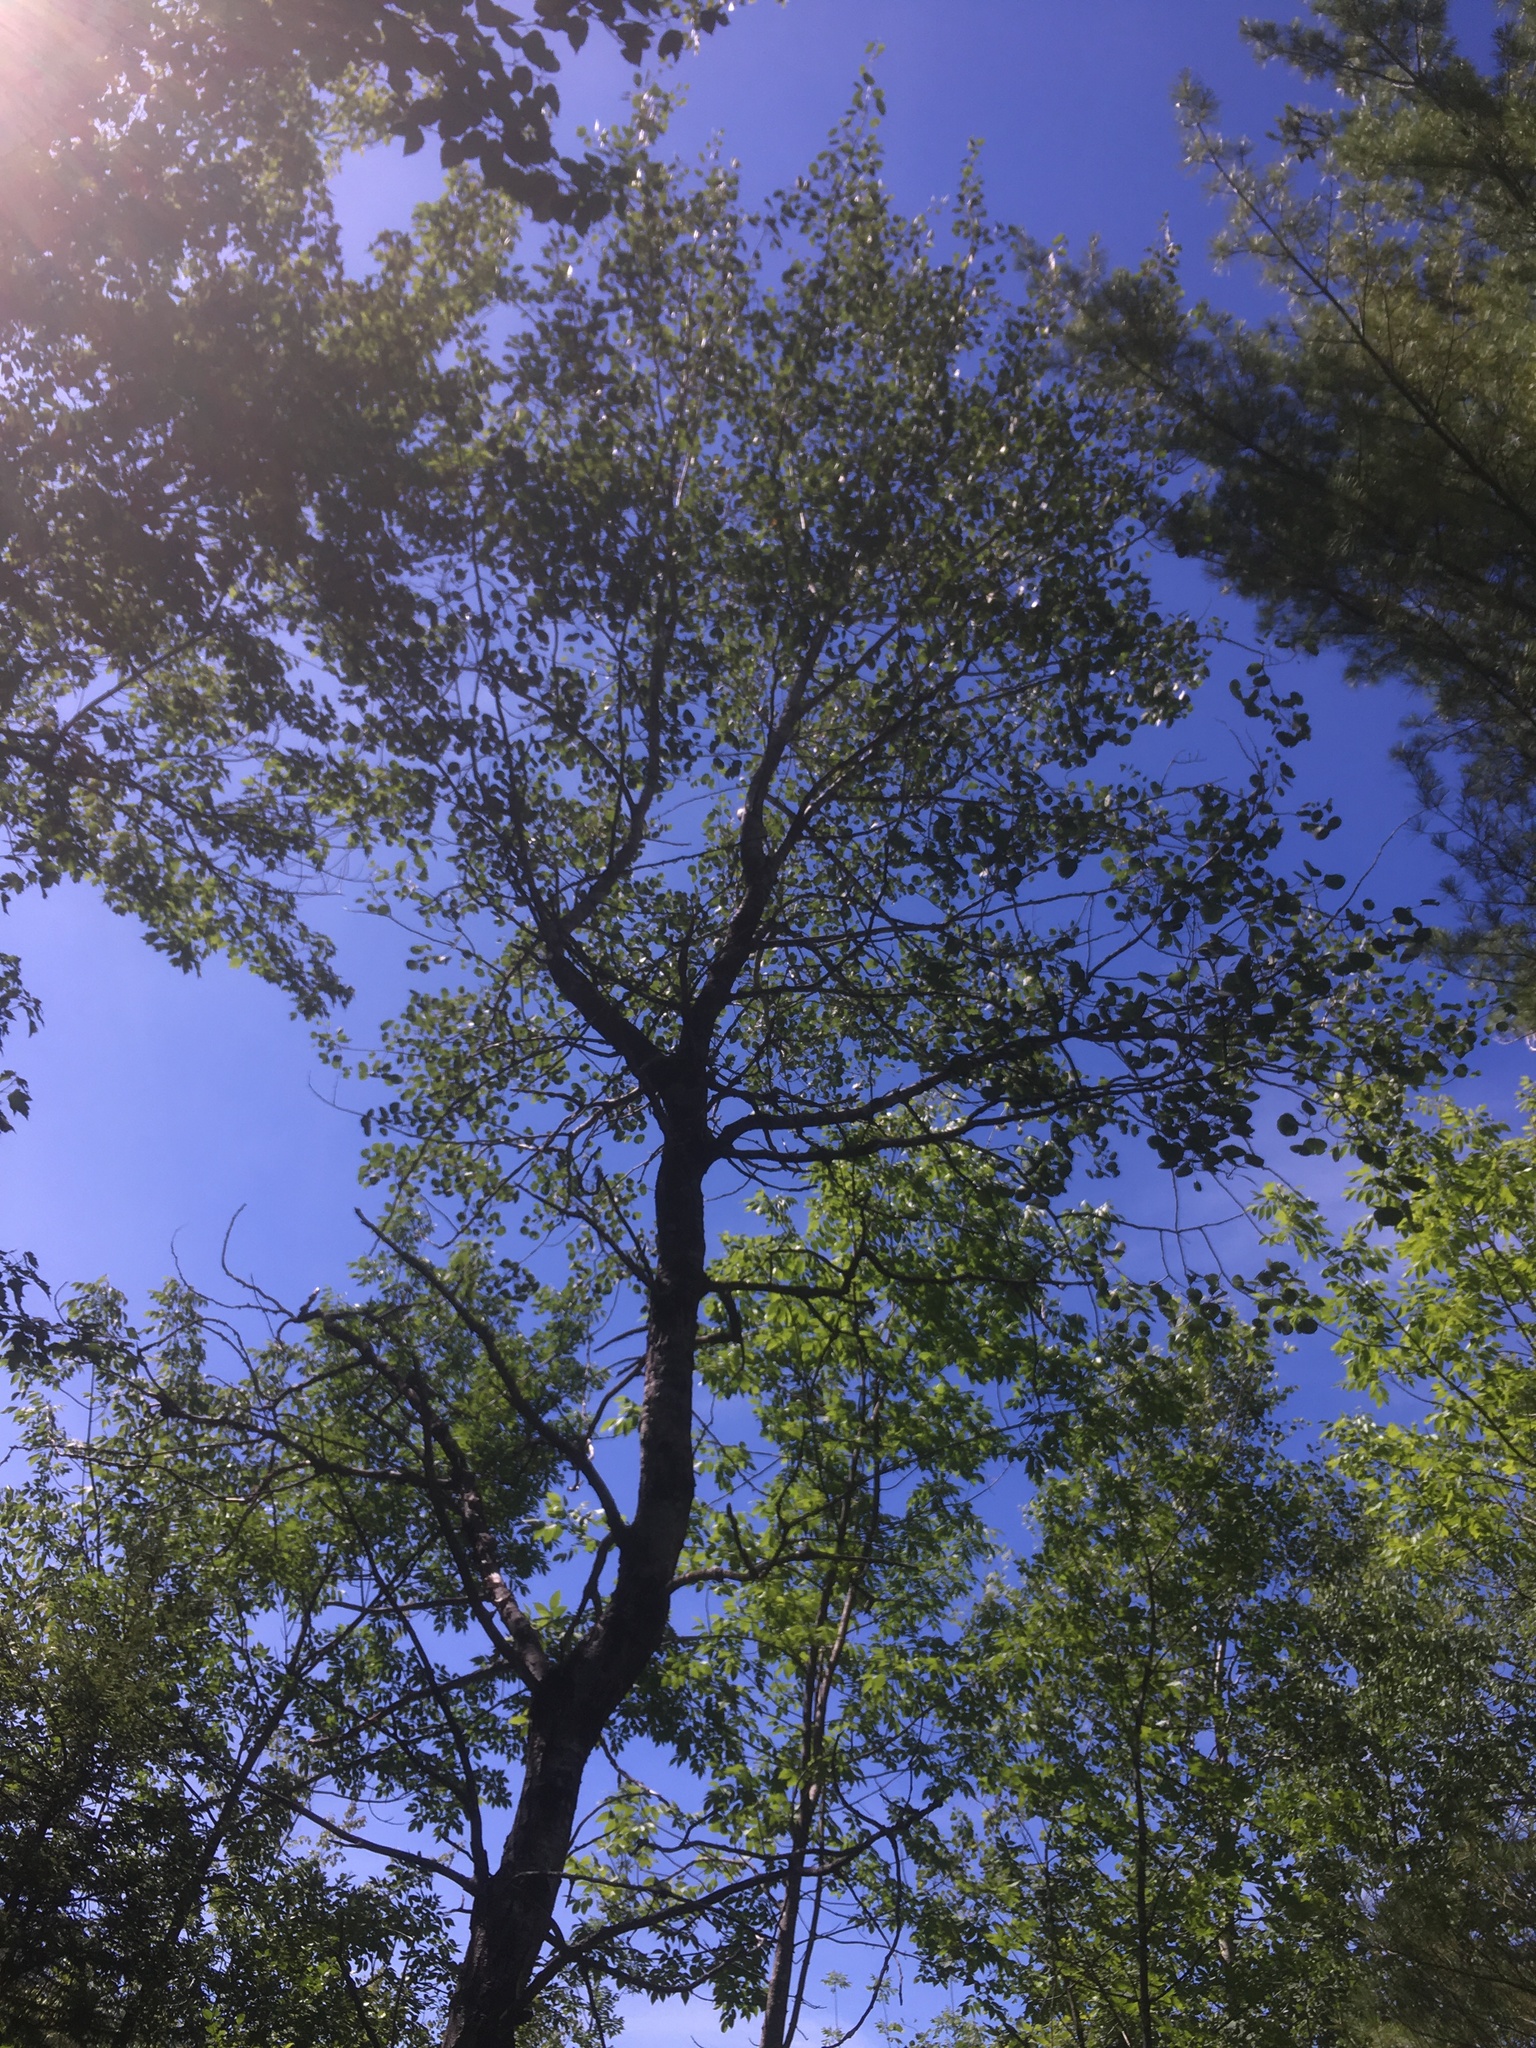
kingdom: Plantae
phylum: Tracheophyta
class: Magnoliopsida
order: Malpighiales
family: Salicaceae
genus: Populus
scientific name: Populus tremuloides
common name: Quaking aspen
